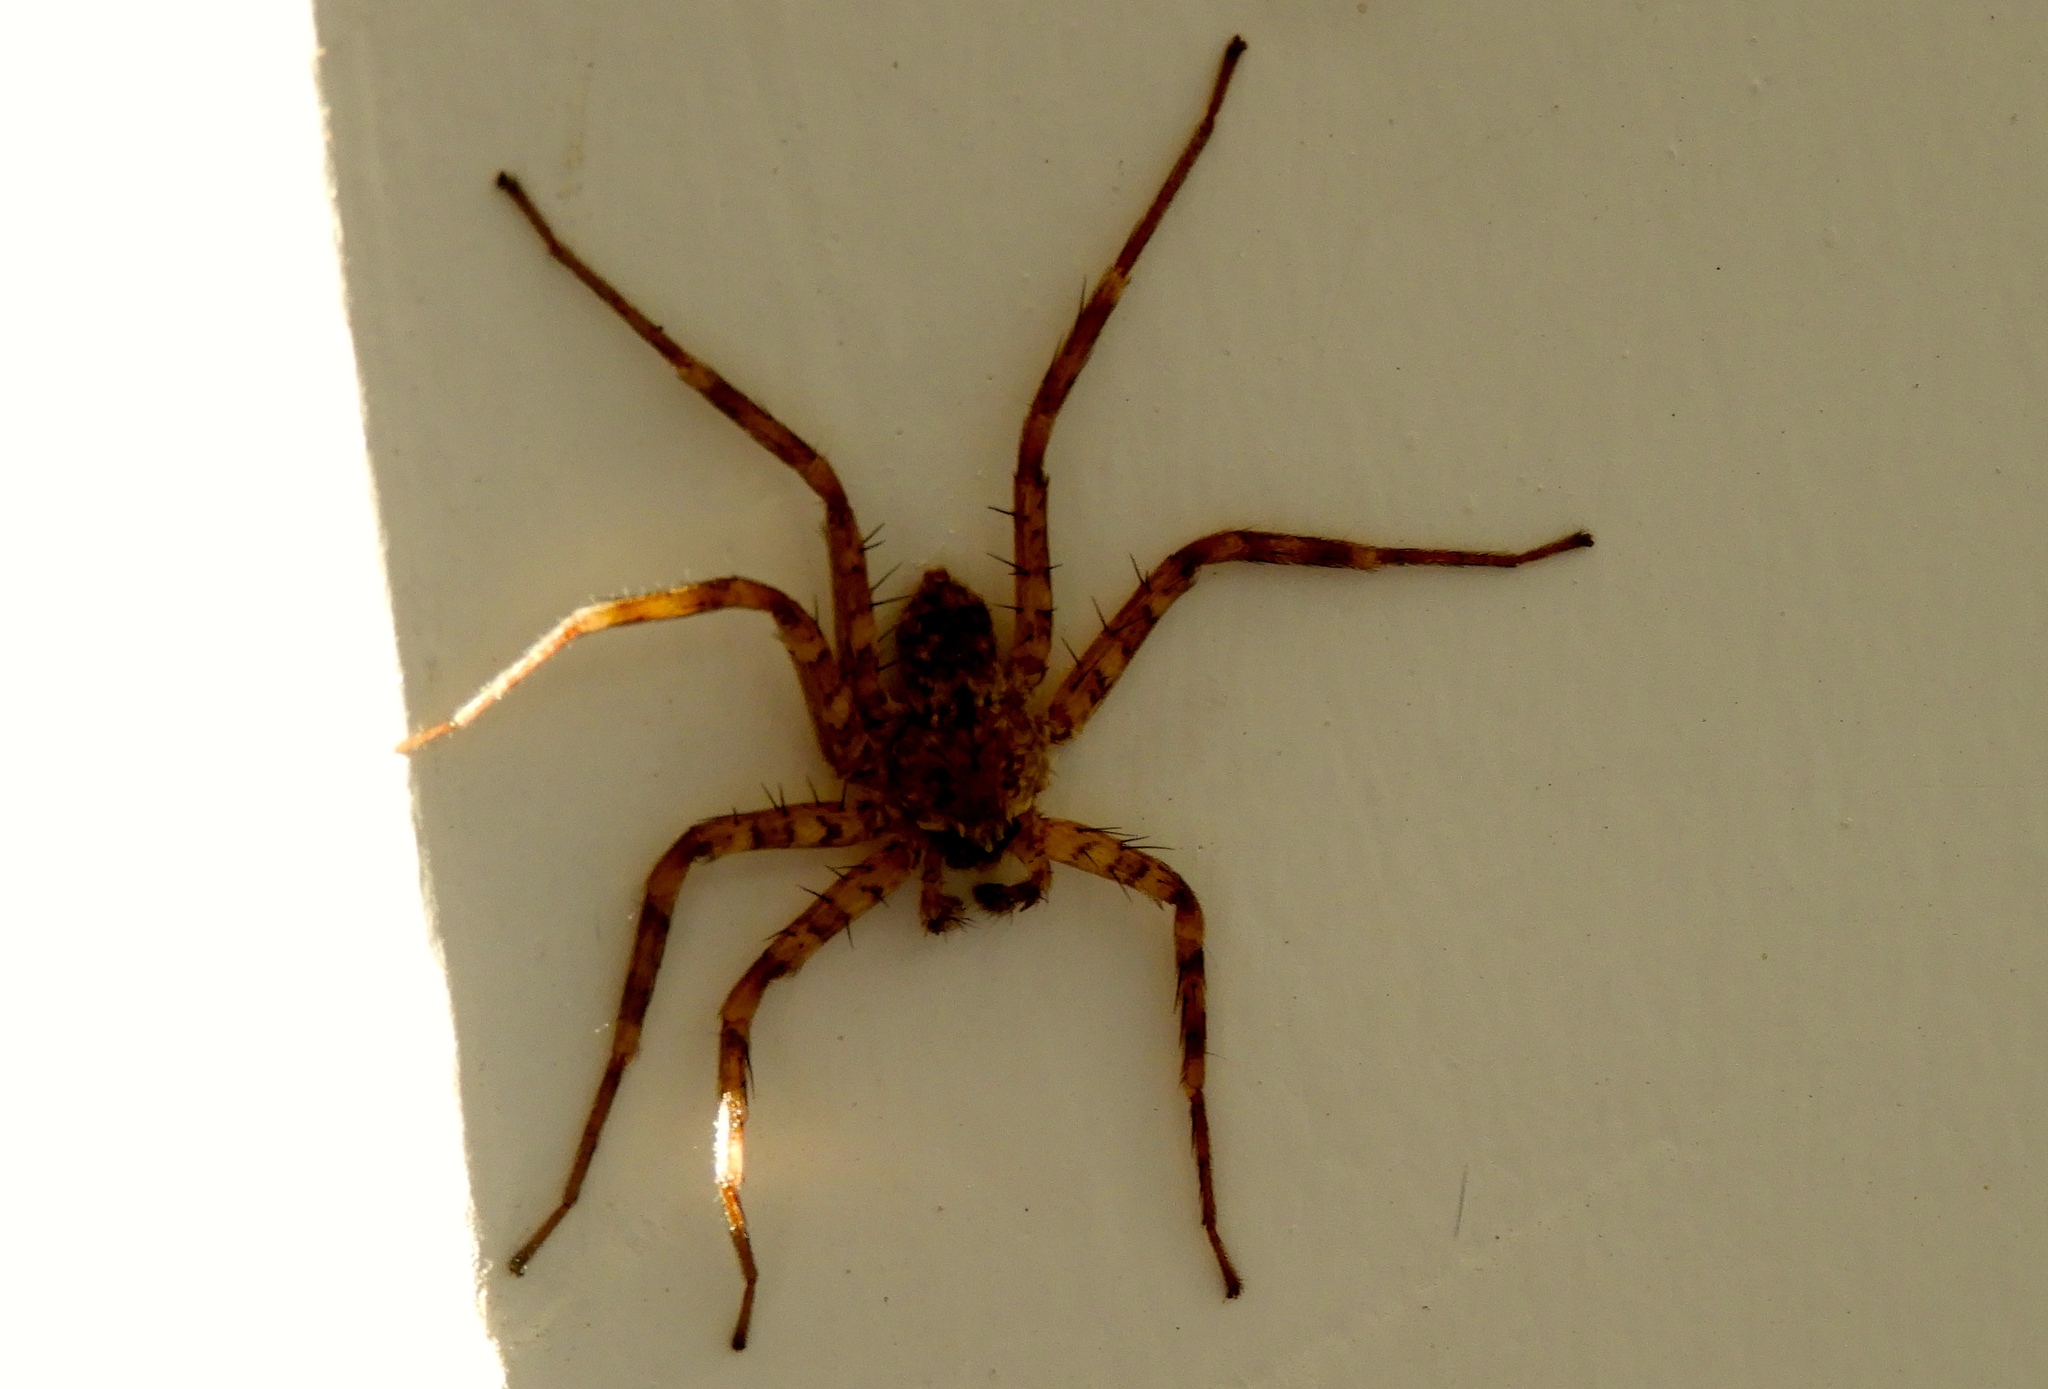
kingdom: Animalia
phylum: Arthropoda
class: Arachnida
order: Araneae
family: Selenopidae
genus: Selenops
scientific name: Selenops
